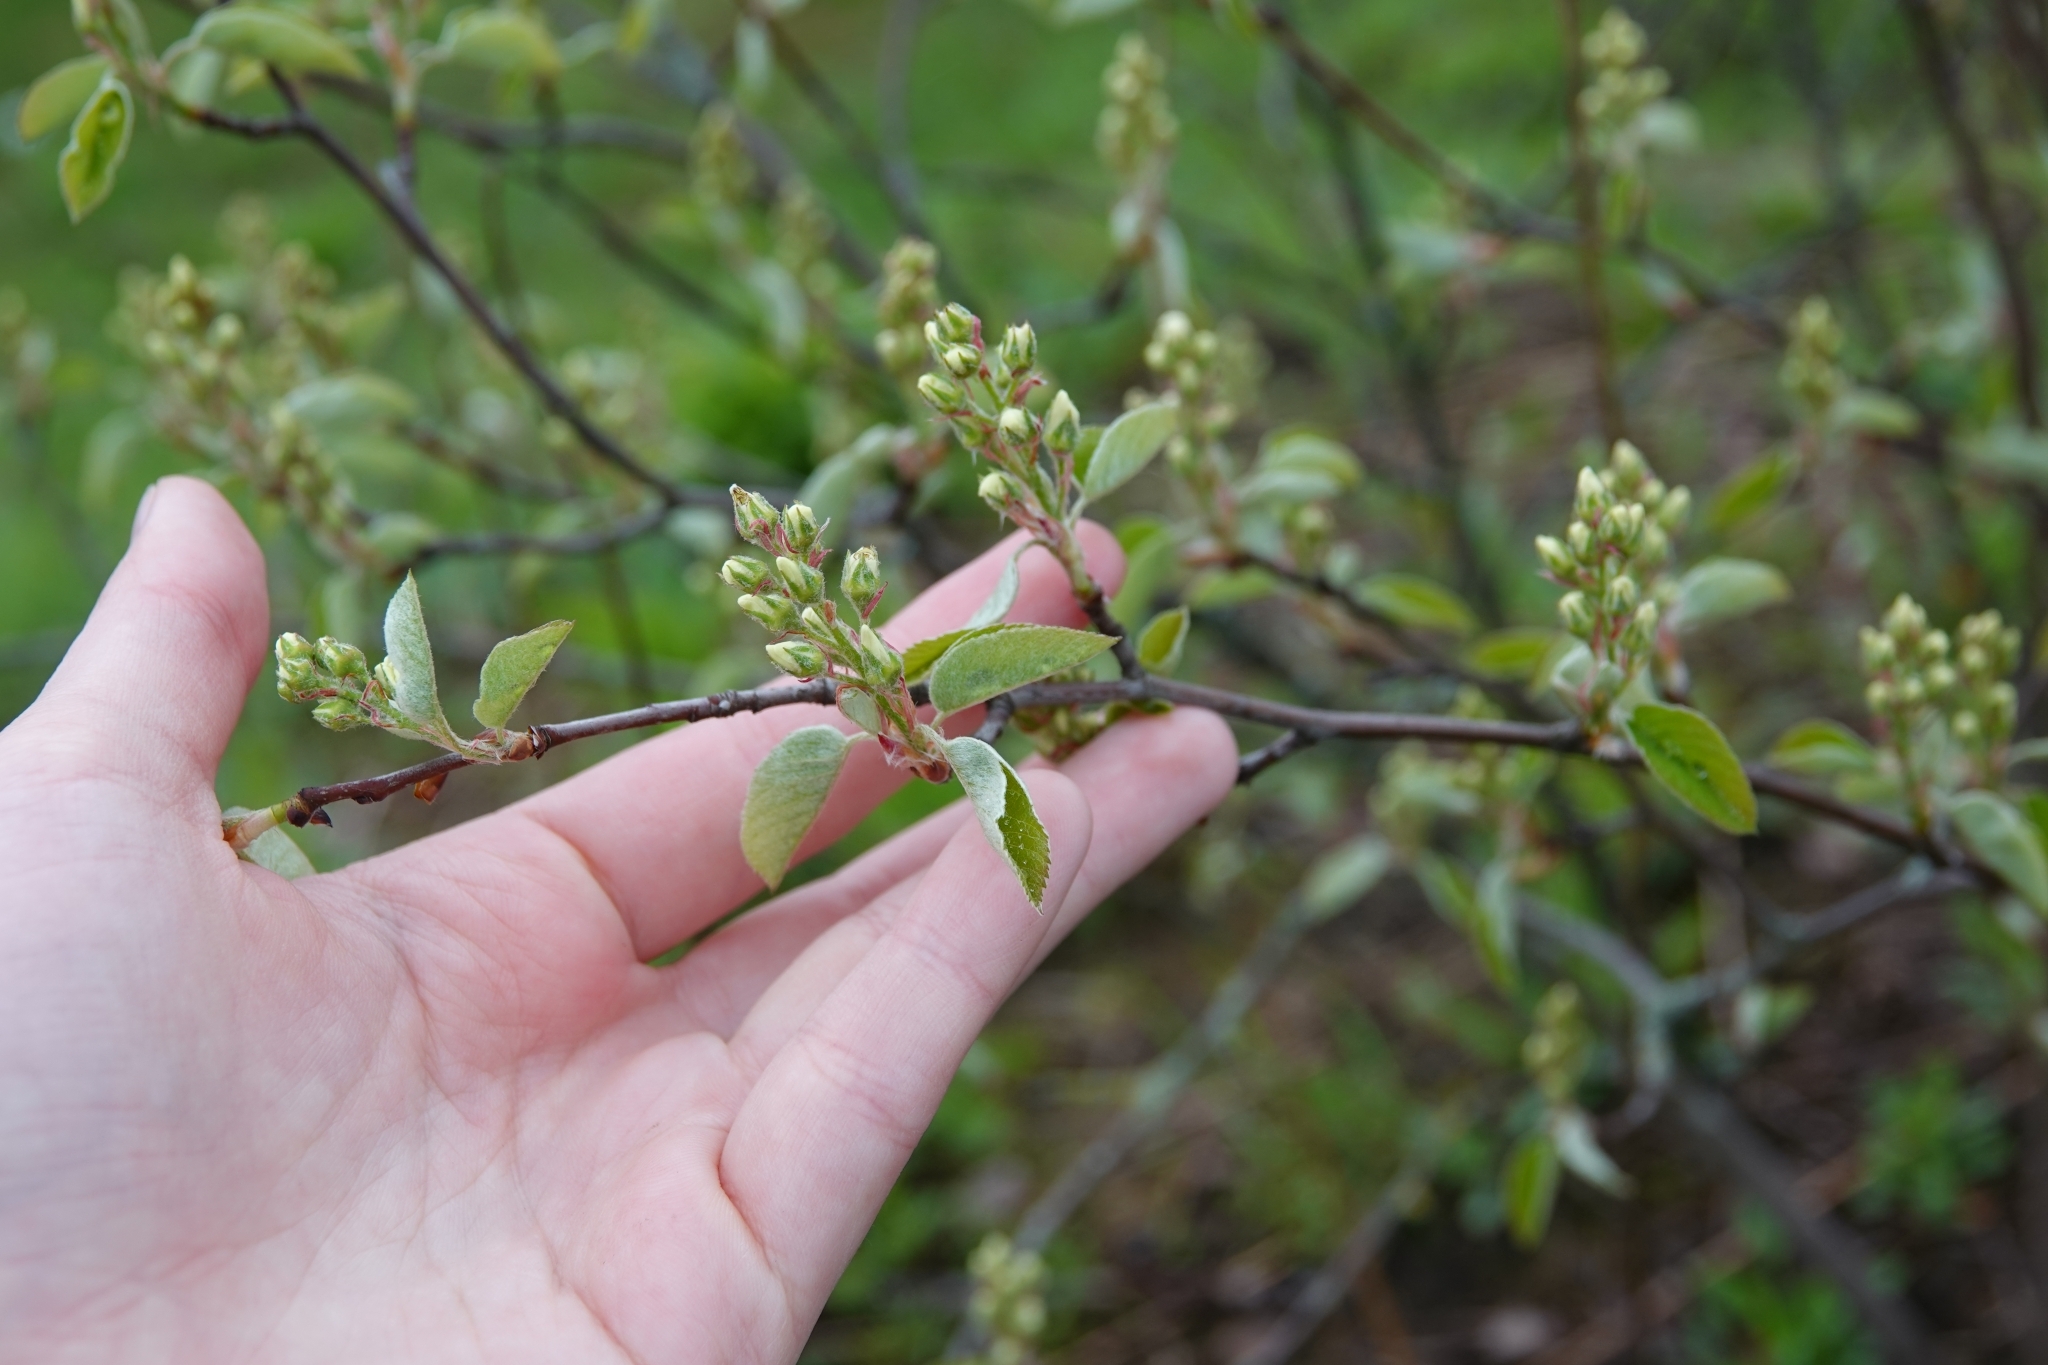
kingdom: Plantae
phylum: Tracheophyta
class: Magnoliopsida
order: Rosales
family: Rosaceae
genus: Amelanchier
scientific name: Amelanchier
